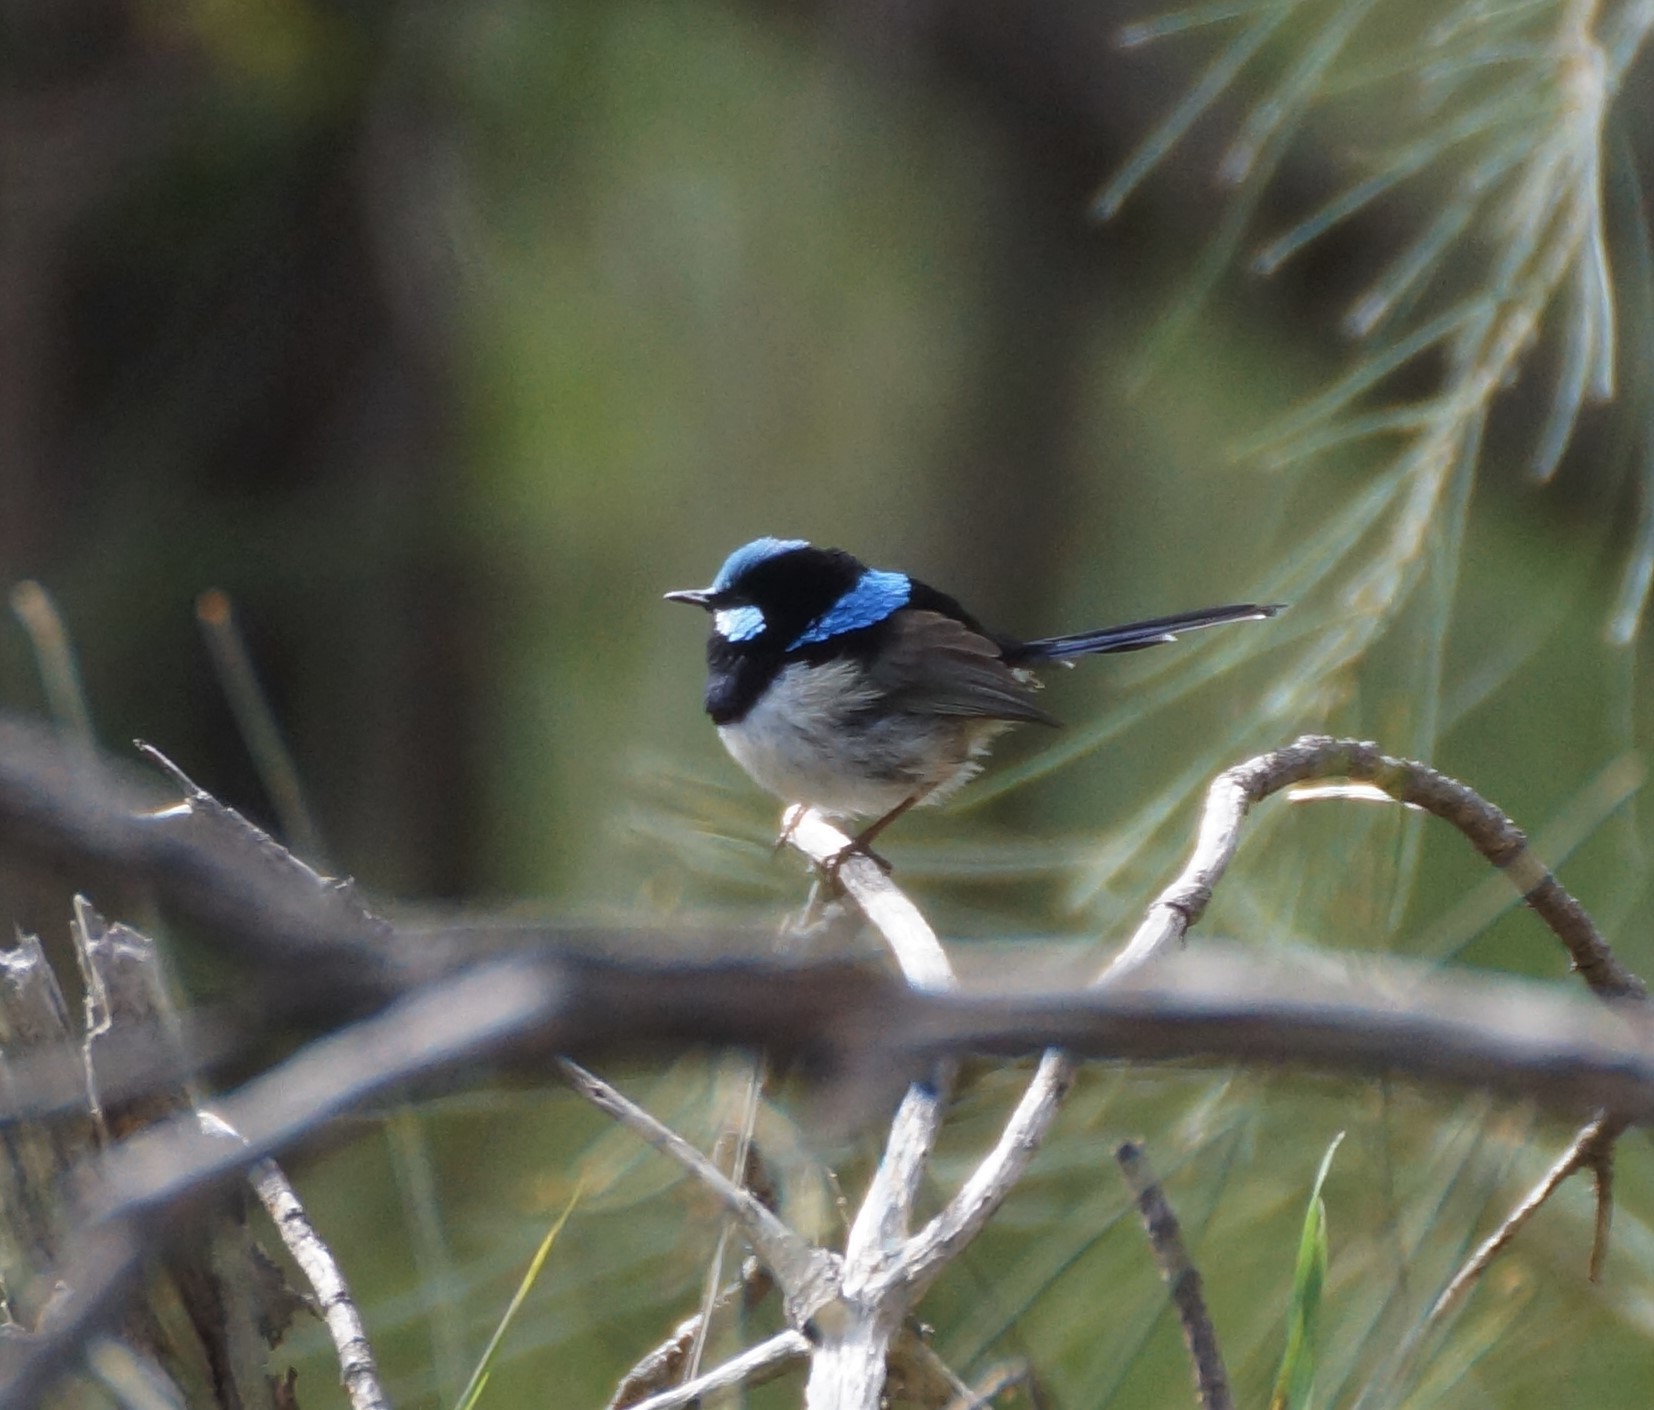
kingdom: Animalia
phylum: Chordata
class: Aves
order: Passeriformes
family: Maluridae
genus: Malurus
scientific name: Malurus cyaneus
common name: Superb fairywren
